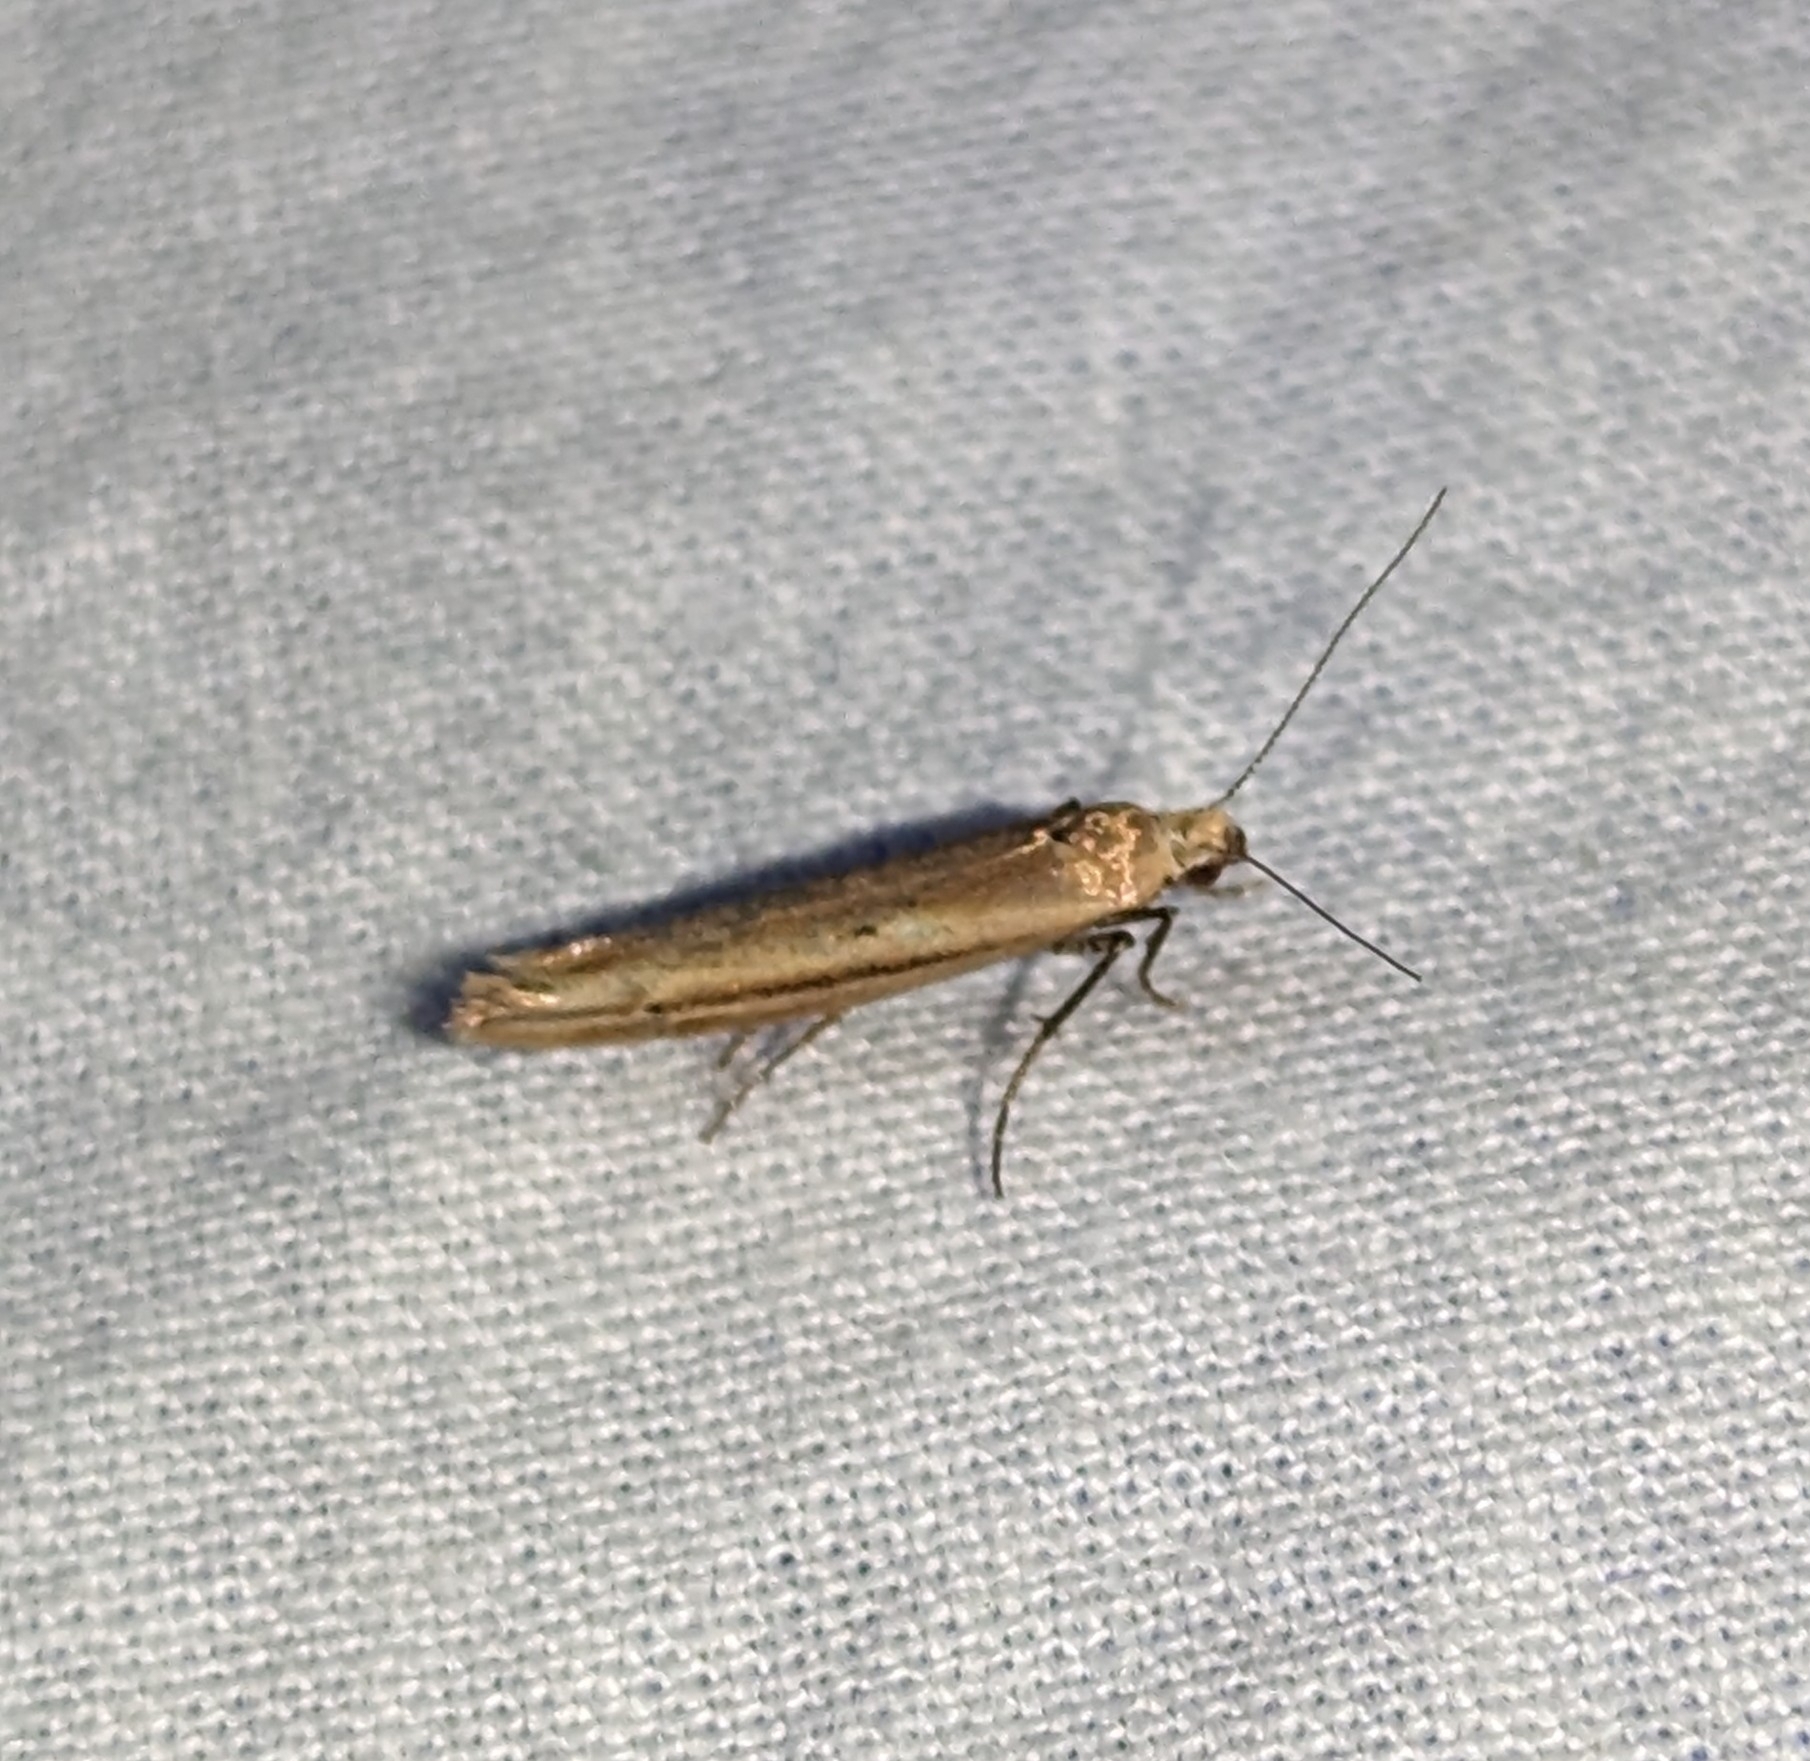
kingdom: Animalia
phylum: Arthropoda
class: Insecta
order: Lepidoptera
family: Ypsolophidae
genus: Ypsolopha
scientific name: Ypsolopha
